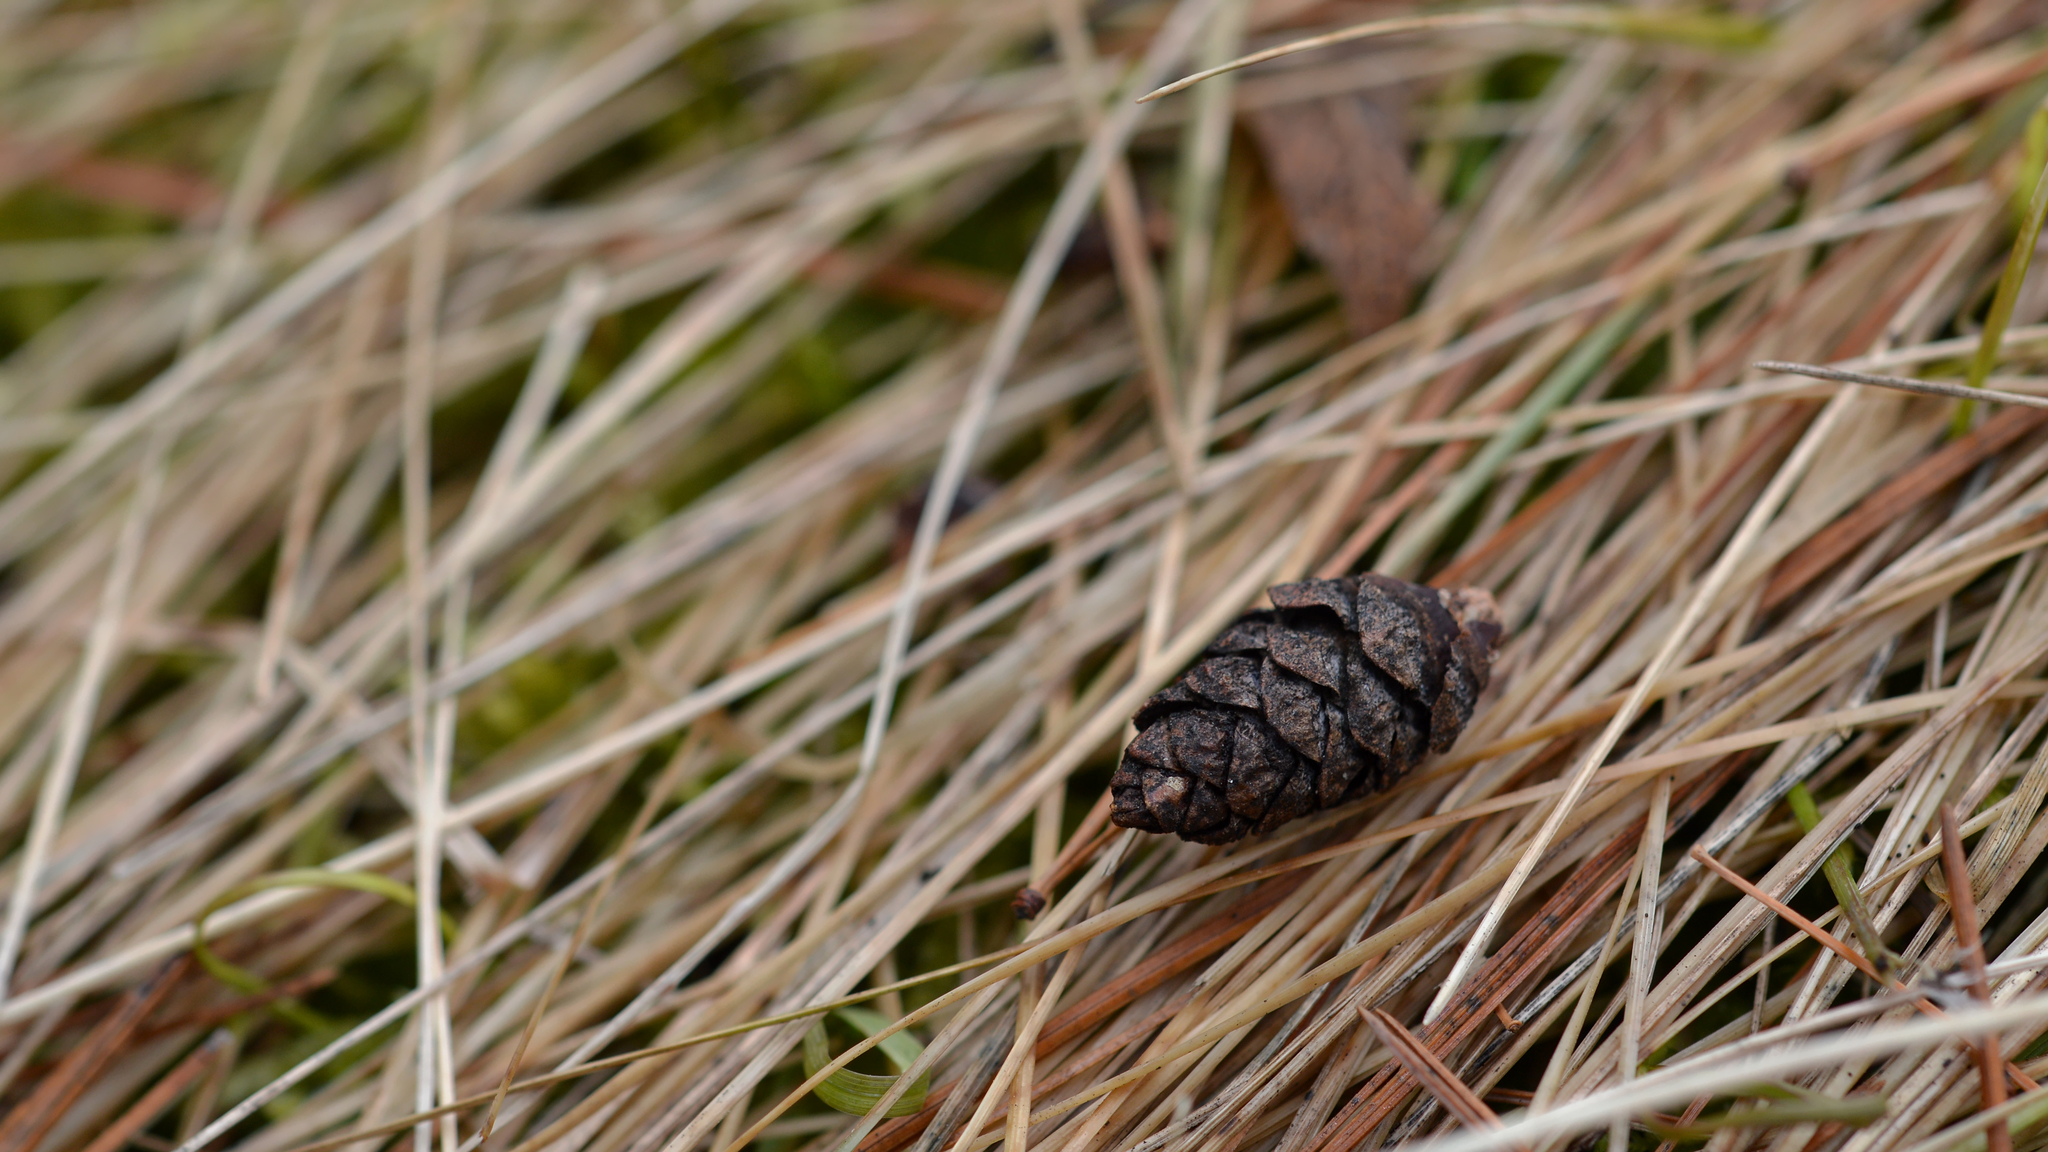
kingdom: Plantae
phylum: Tracheophyta
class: Pinopsida
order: Pinales
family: Pinaceae
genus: Tsuga
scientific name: Tsuga canadensis
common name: Eastern hemlock
